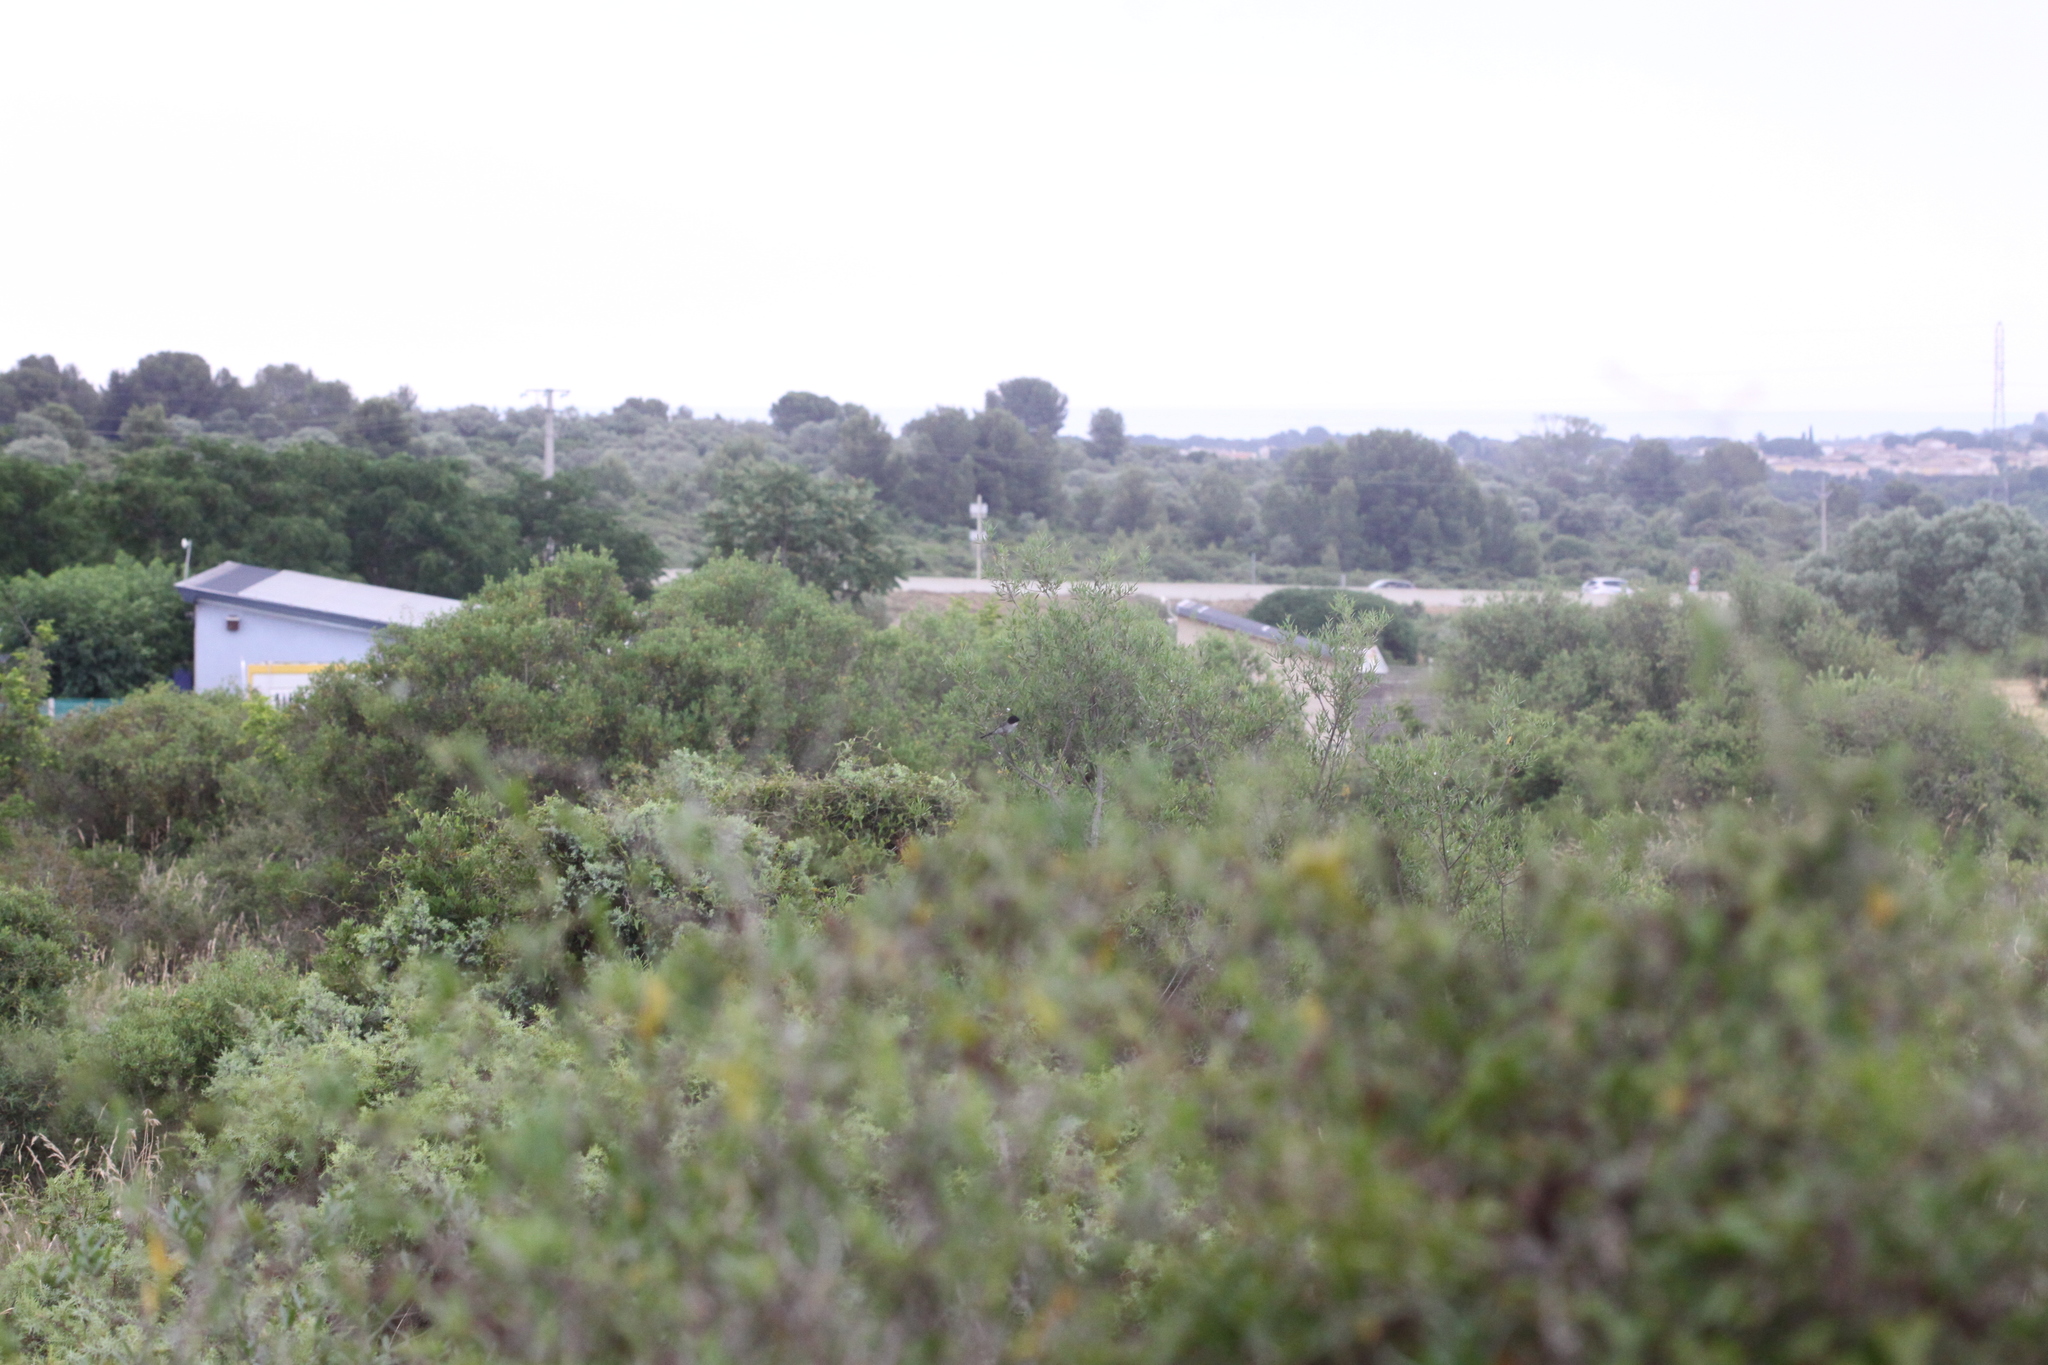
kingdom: Animalia
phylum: Chordata
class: Aves
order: Passeriformes
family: Sylviidae
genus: Curruca
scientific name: Curruca melanocephala
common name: Sardinian warbler
